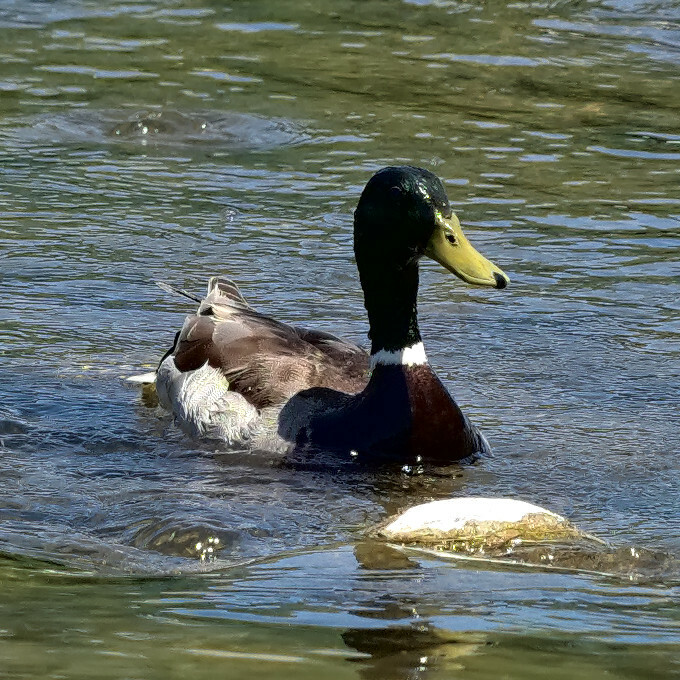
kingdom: Animalia
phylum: Chordata
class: Aves
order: Anseriformes
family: Anatidae
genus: Anas
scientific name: Anas platyrhynchos
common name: Mallard
